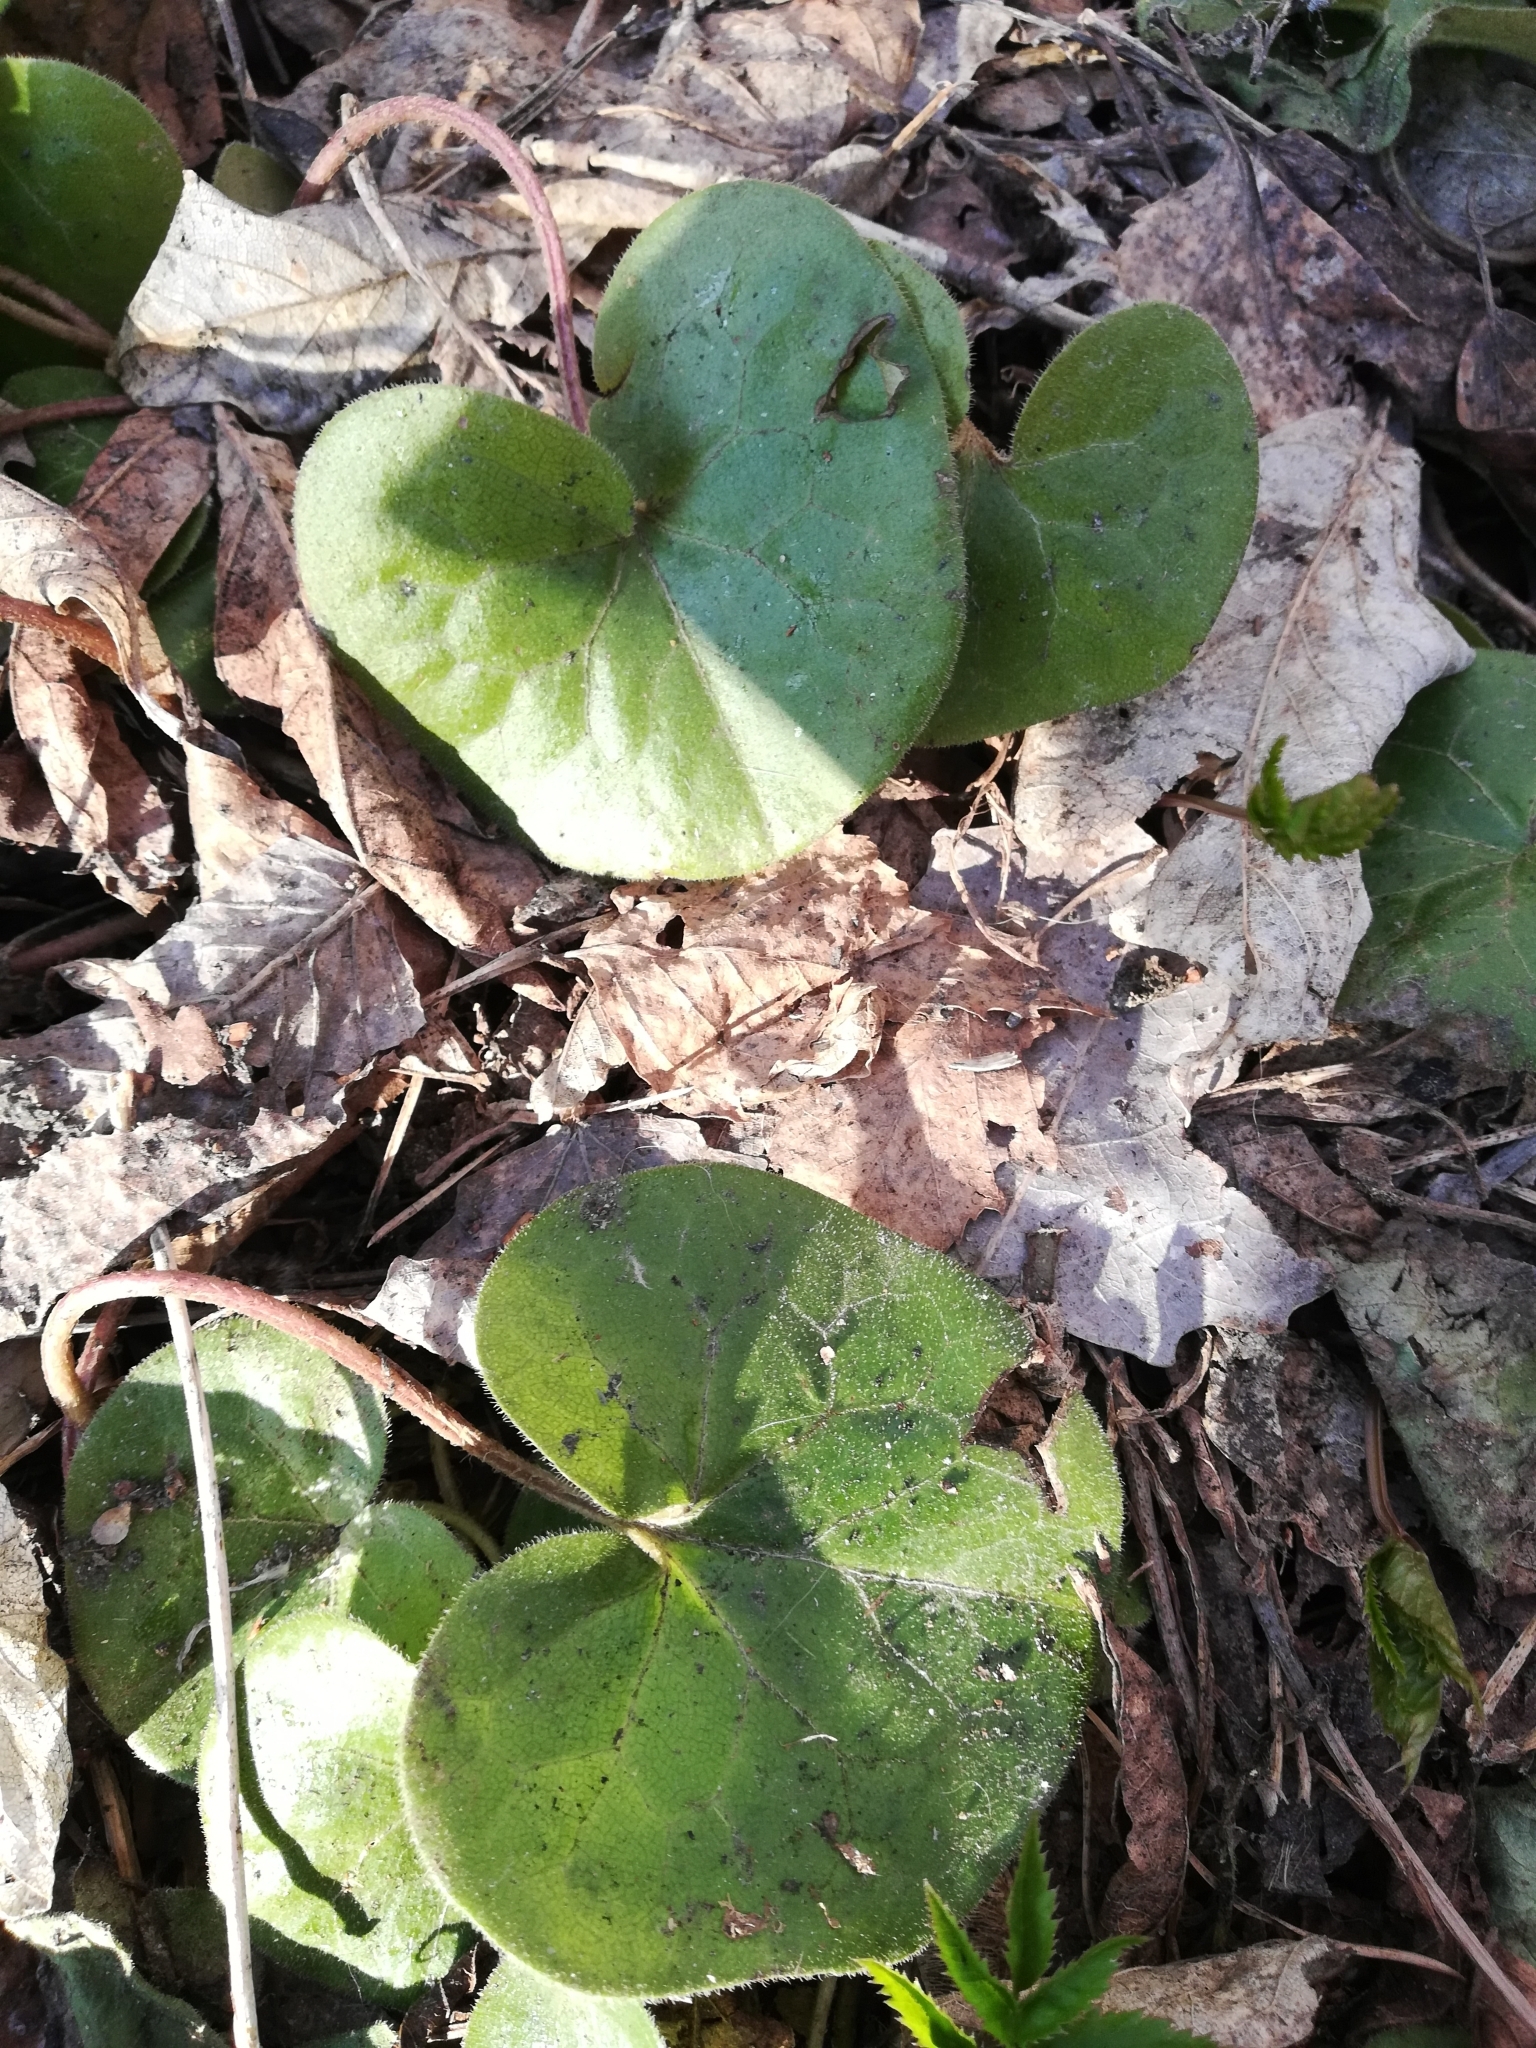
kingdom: Plantae
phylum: Tracheophyta
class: Magnoliopsida
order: Piperales
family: Aristolochiaceae
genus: Asarum
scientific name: Asarum europaeum
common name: Asarabacca
